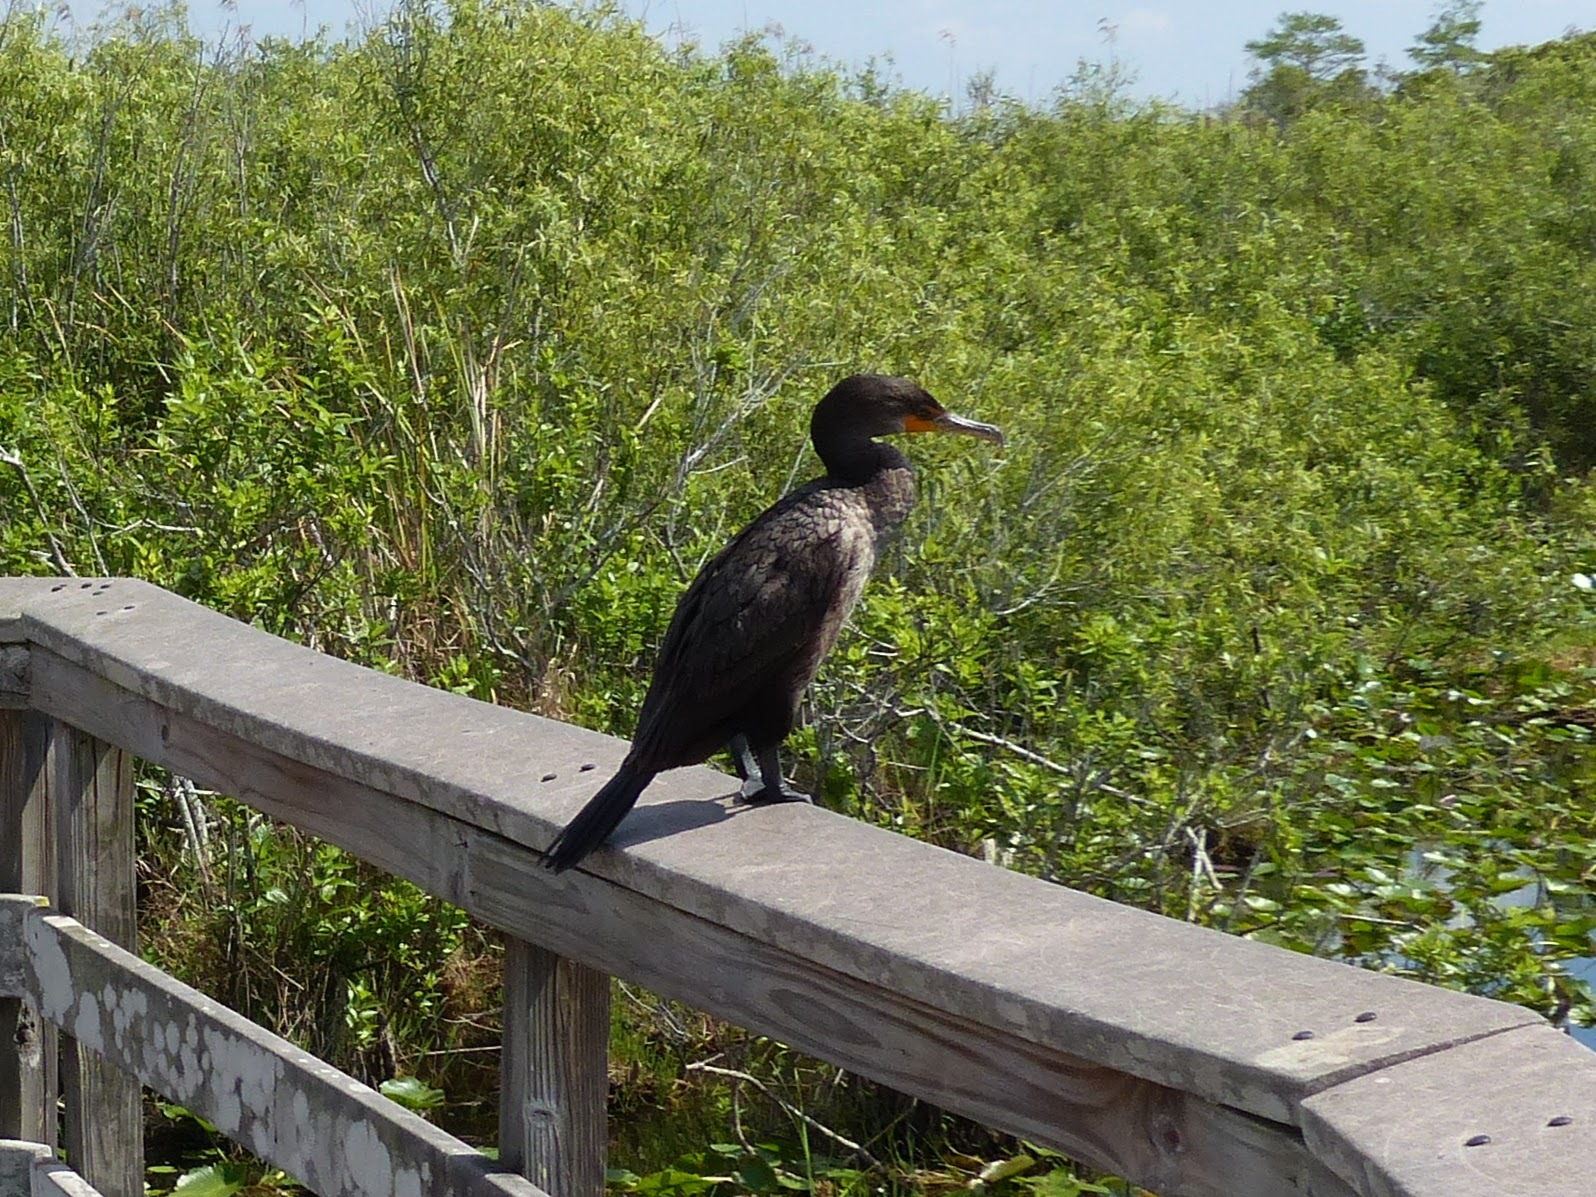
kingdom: Animalia
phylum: Chordata
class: Aves
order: Suliformes
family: Phalacrocoracidae
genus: Phalacrocorax
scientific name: Phalacrocorax auritus
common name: Double-crested cormorant
